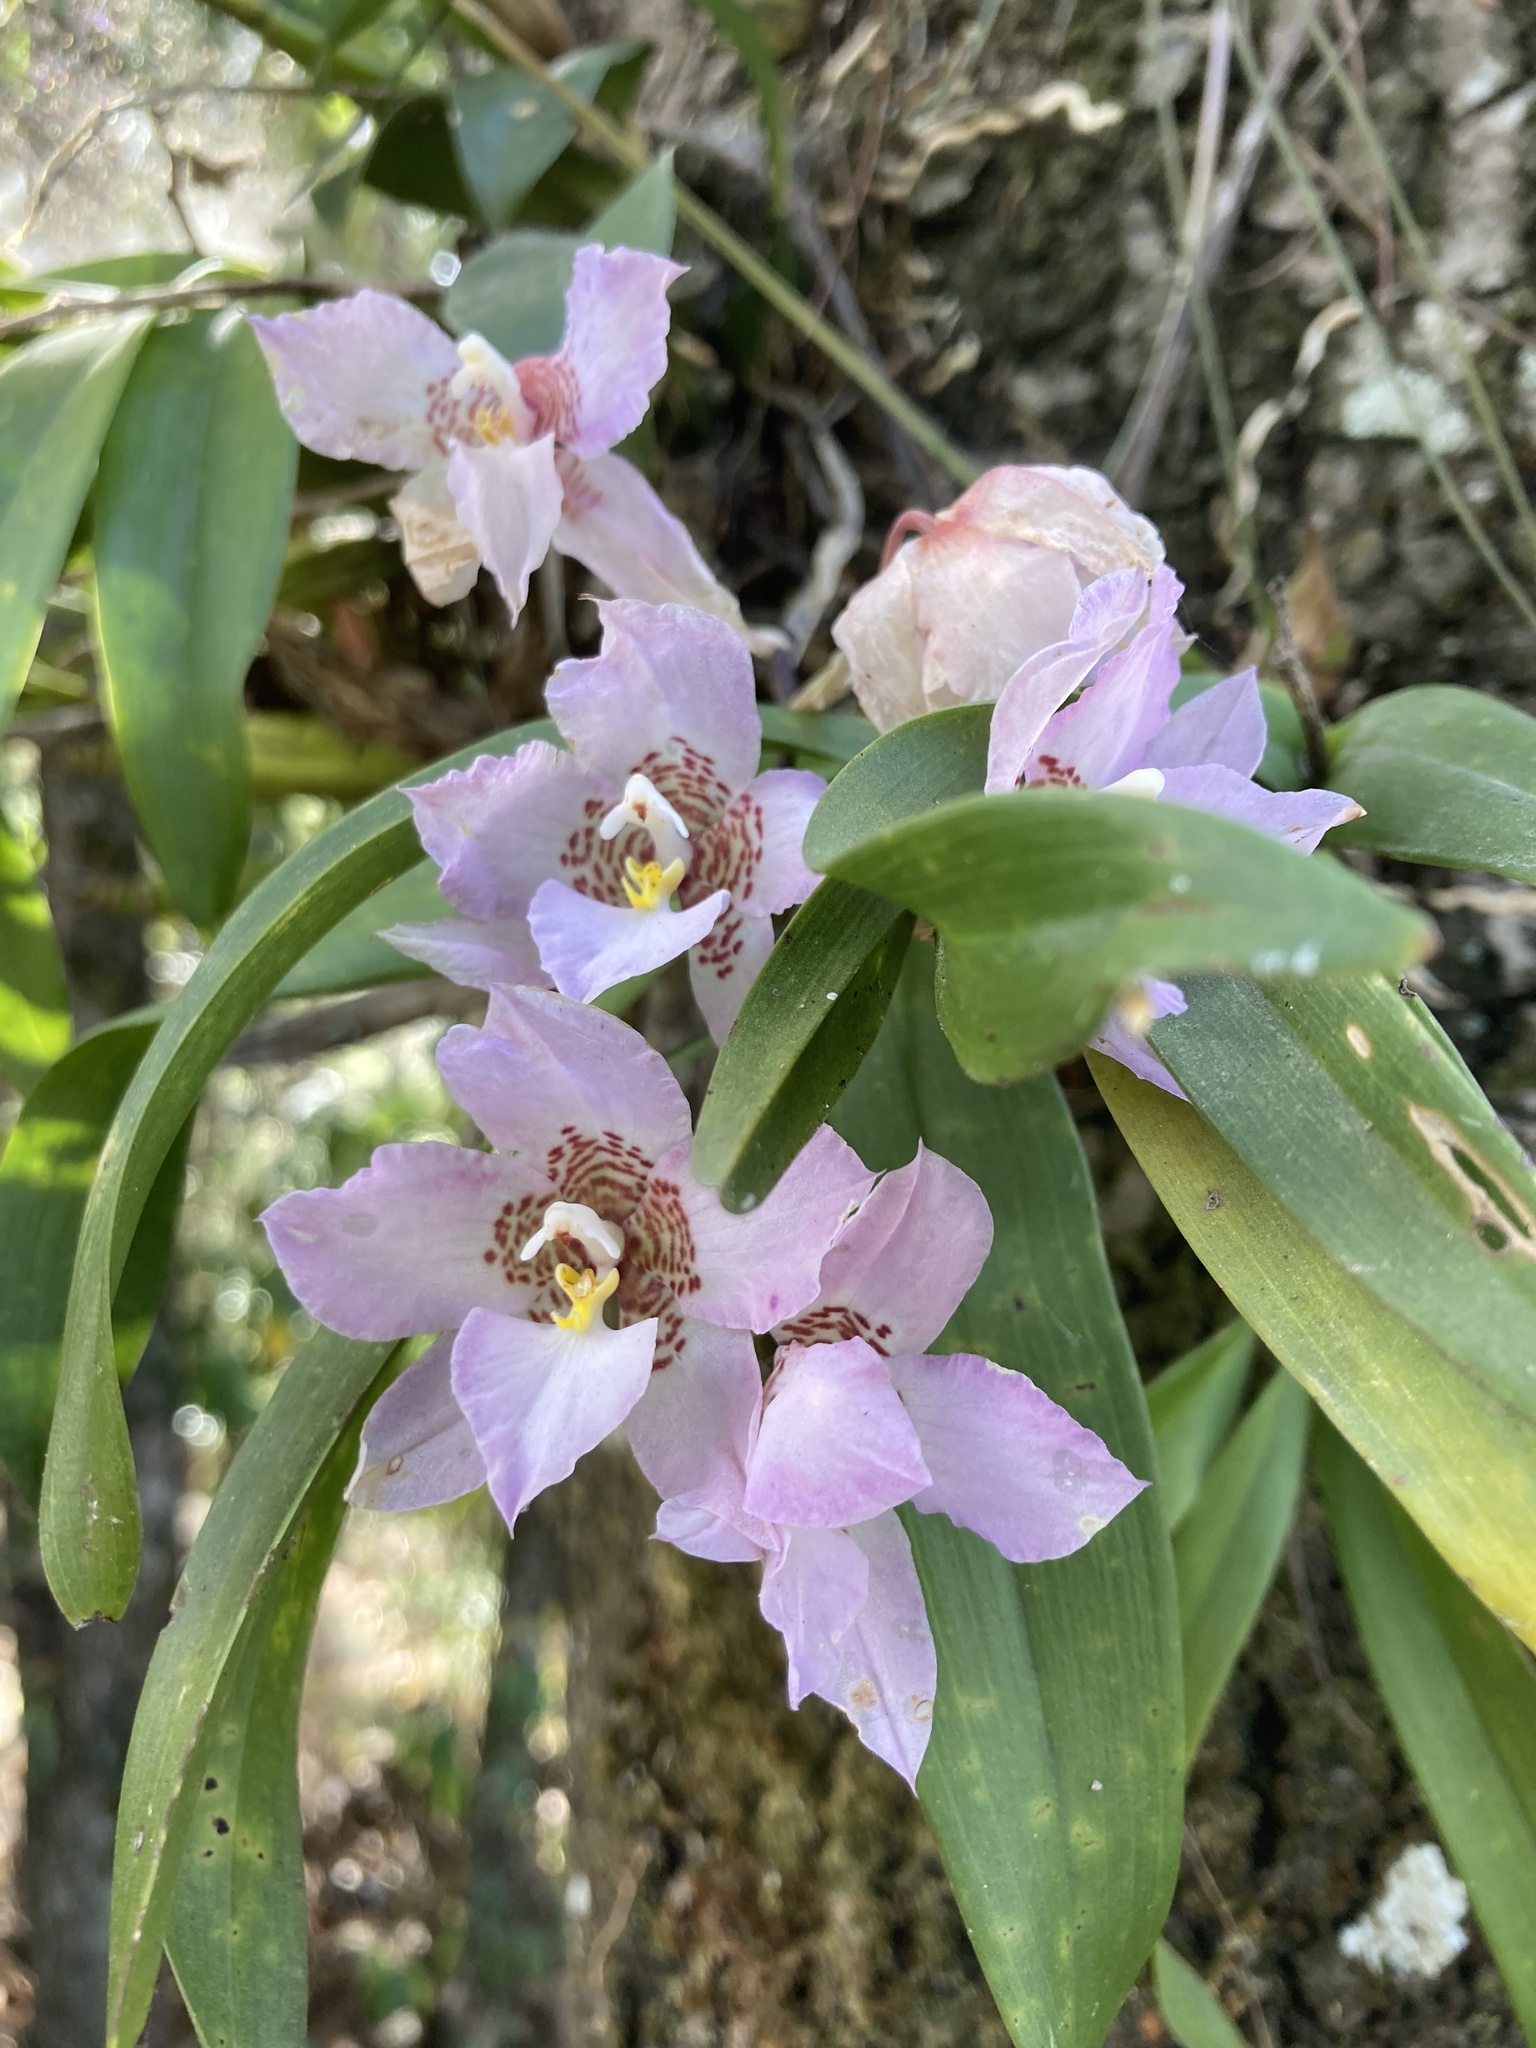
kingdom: Plantae
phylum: Tracheophyta
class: Liliopsida
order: Asparagales
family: Orchidaceae
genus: Rhynchostele
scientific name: Rhynchostele cervantesii
